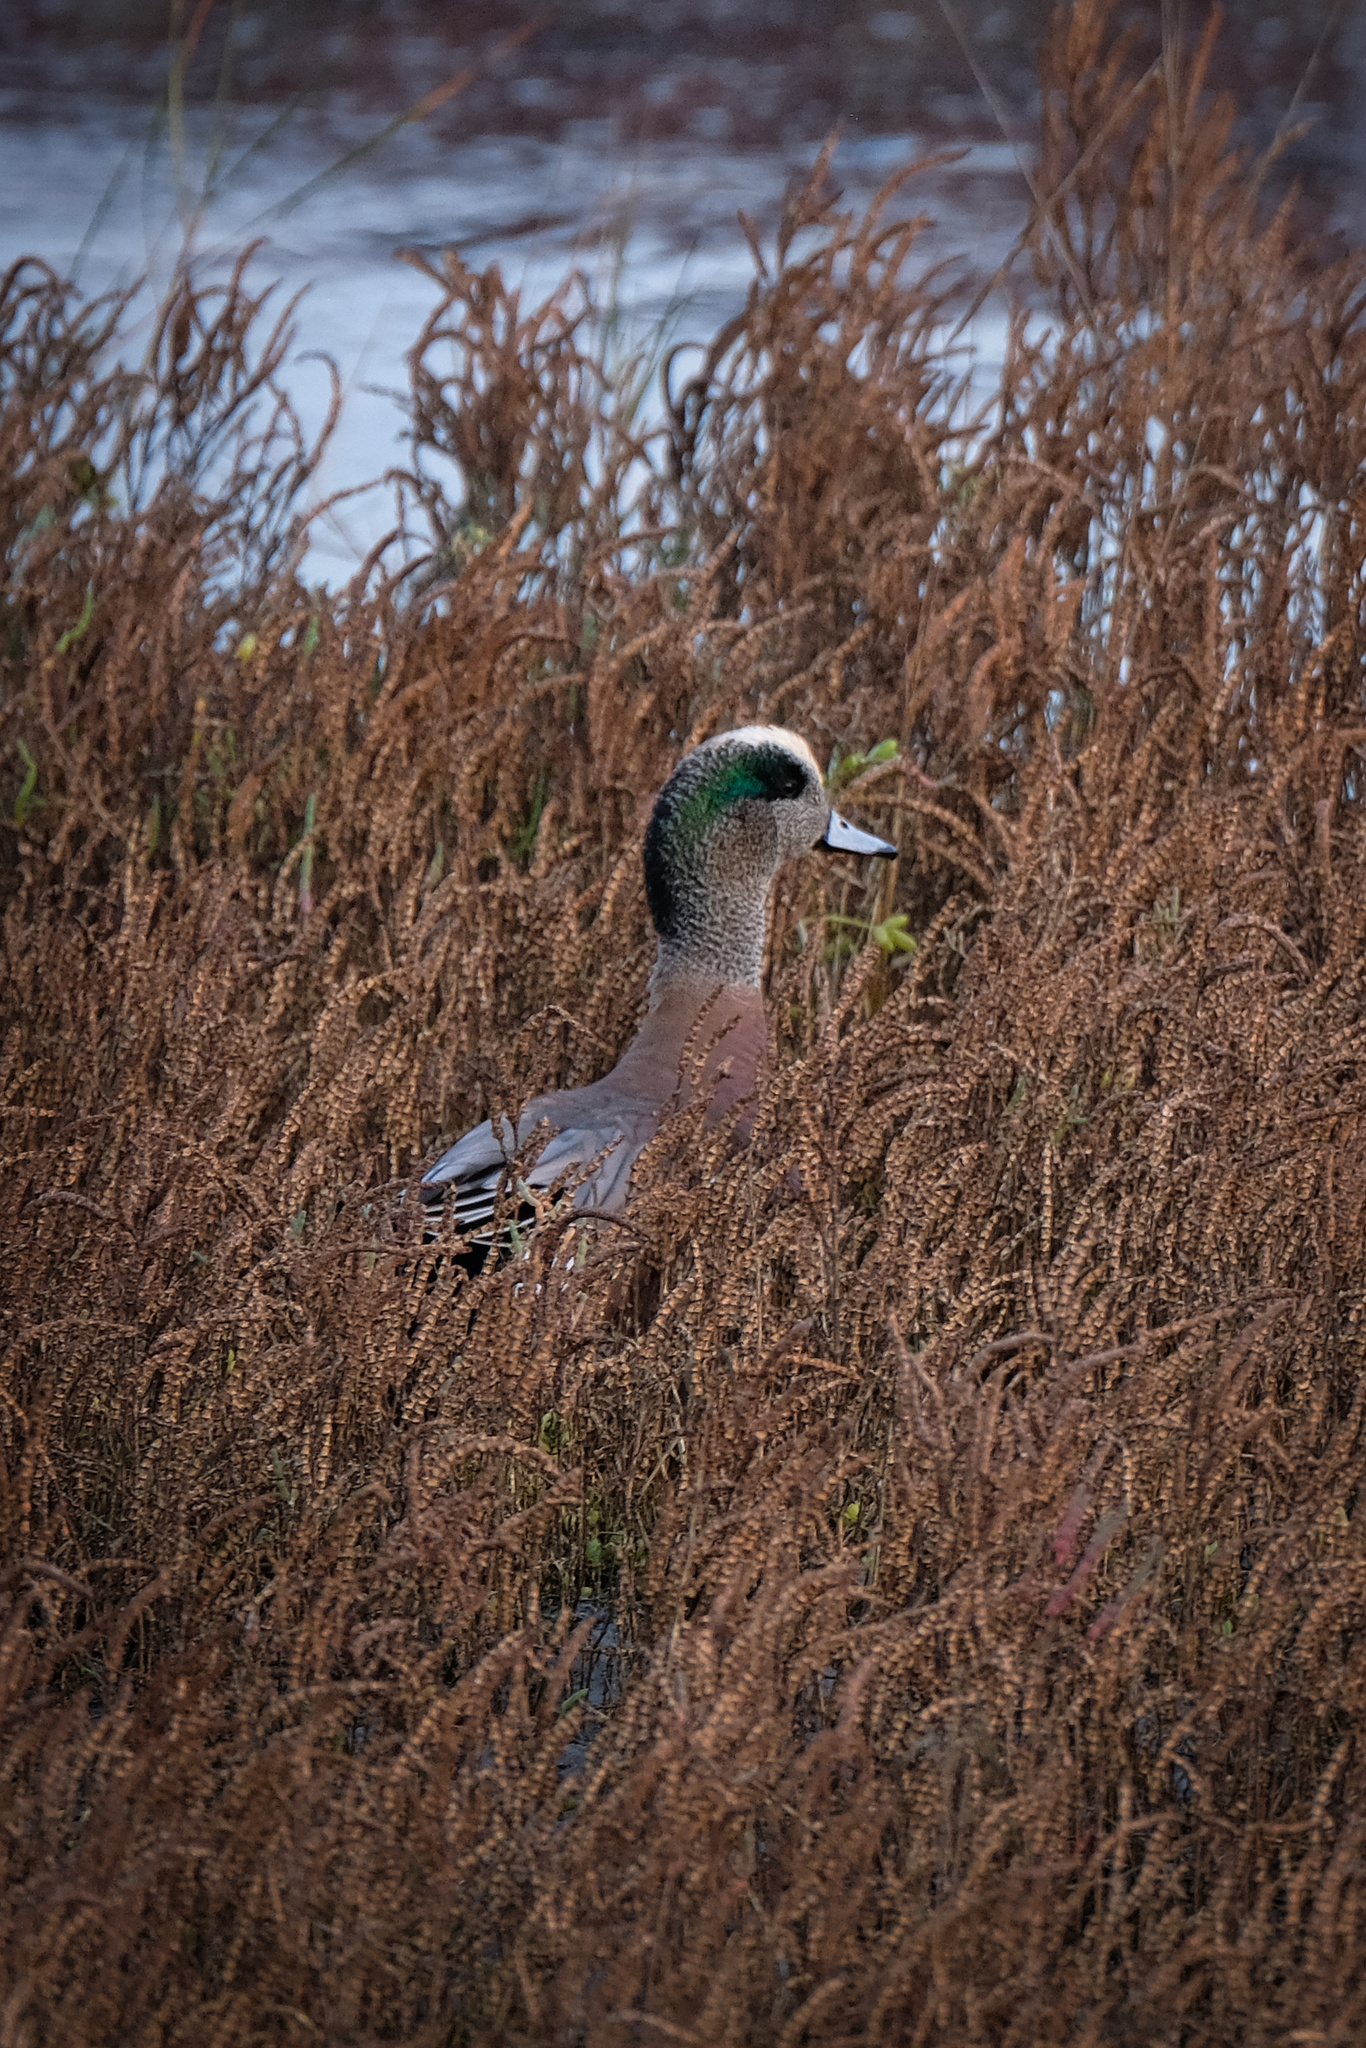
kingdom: Animalia
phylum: Chordata
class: Aves
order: Anseriformes
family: Anatidae
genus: Mareca
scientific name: Mareca americana
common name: American wigeon
